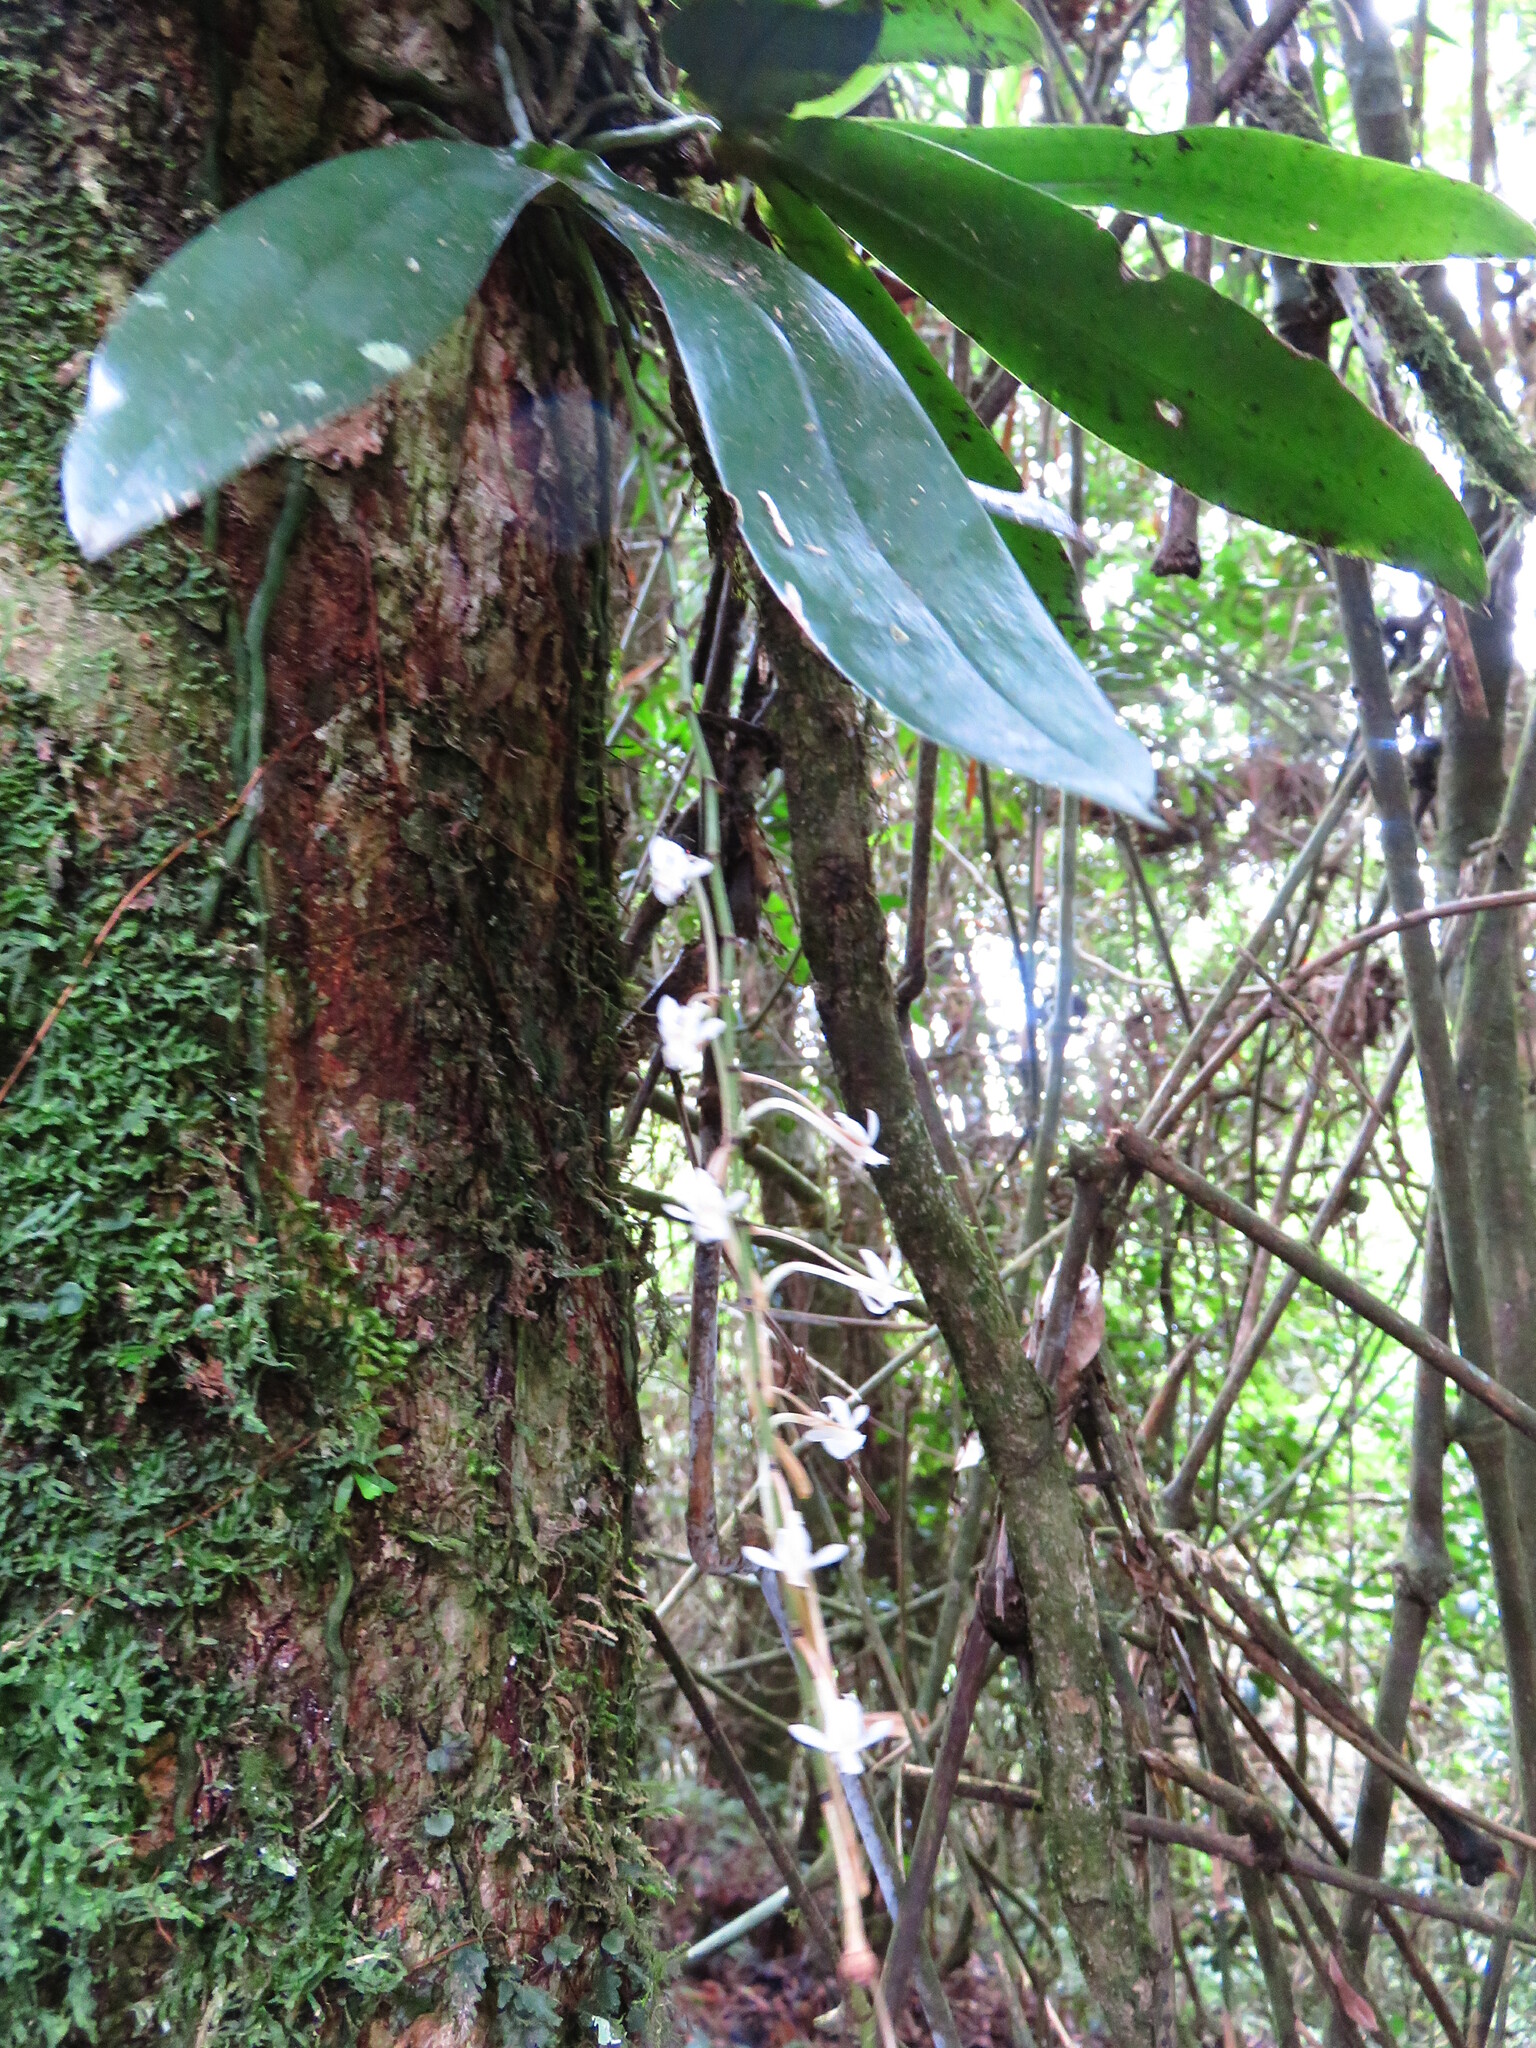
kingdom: Plantae
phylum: Tracheophyta
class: Liliopsida
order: Asparagales
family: Orchidaceae
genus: Aerangis
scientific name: Aerangis macrocentra
